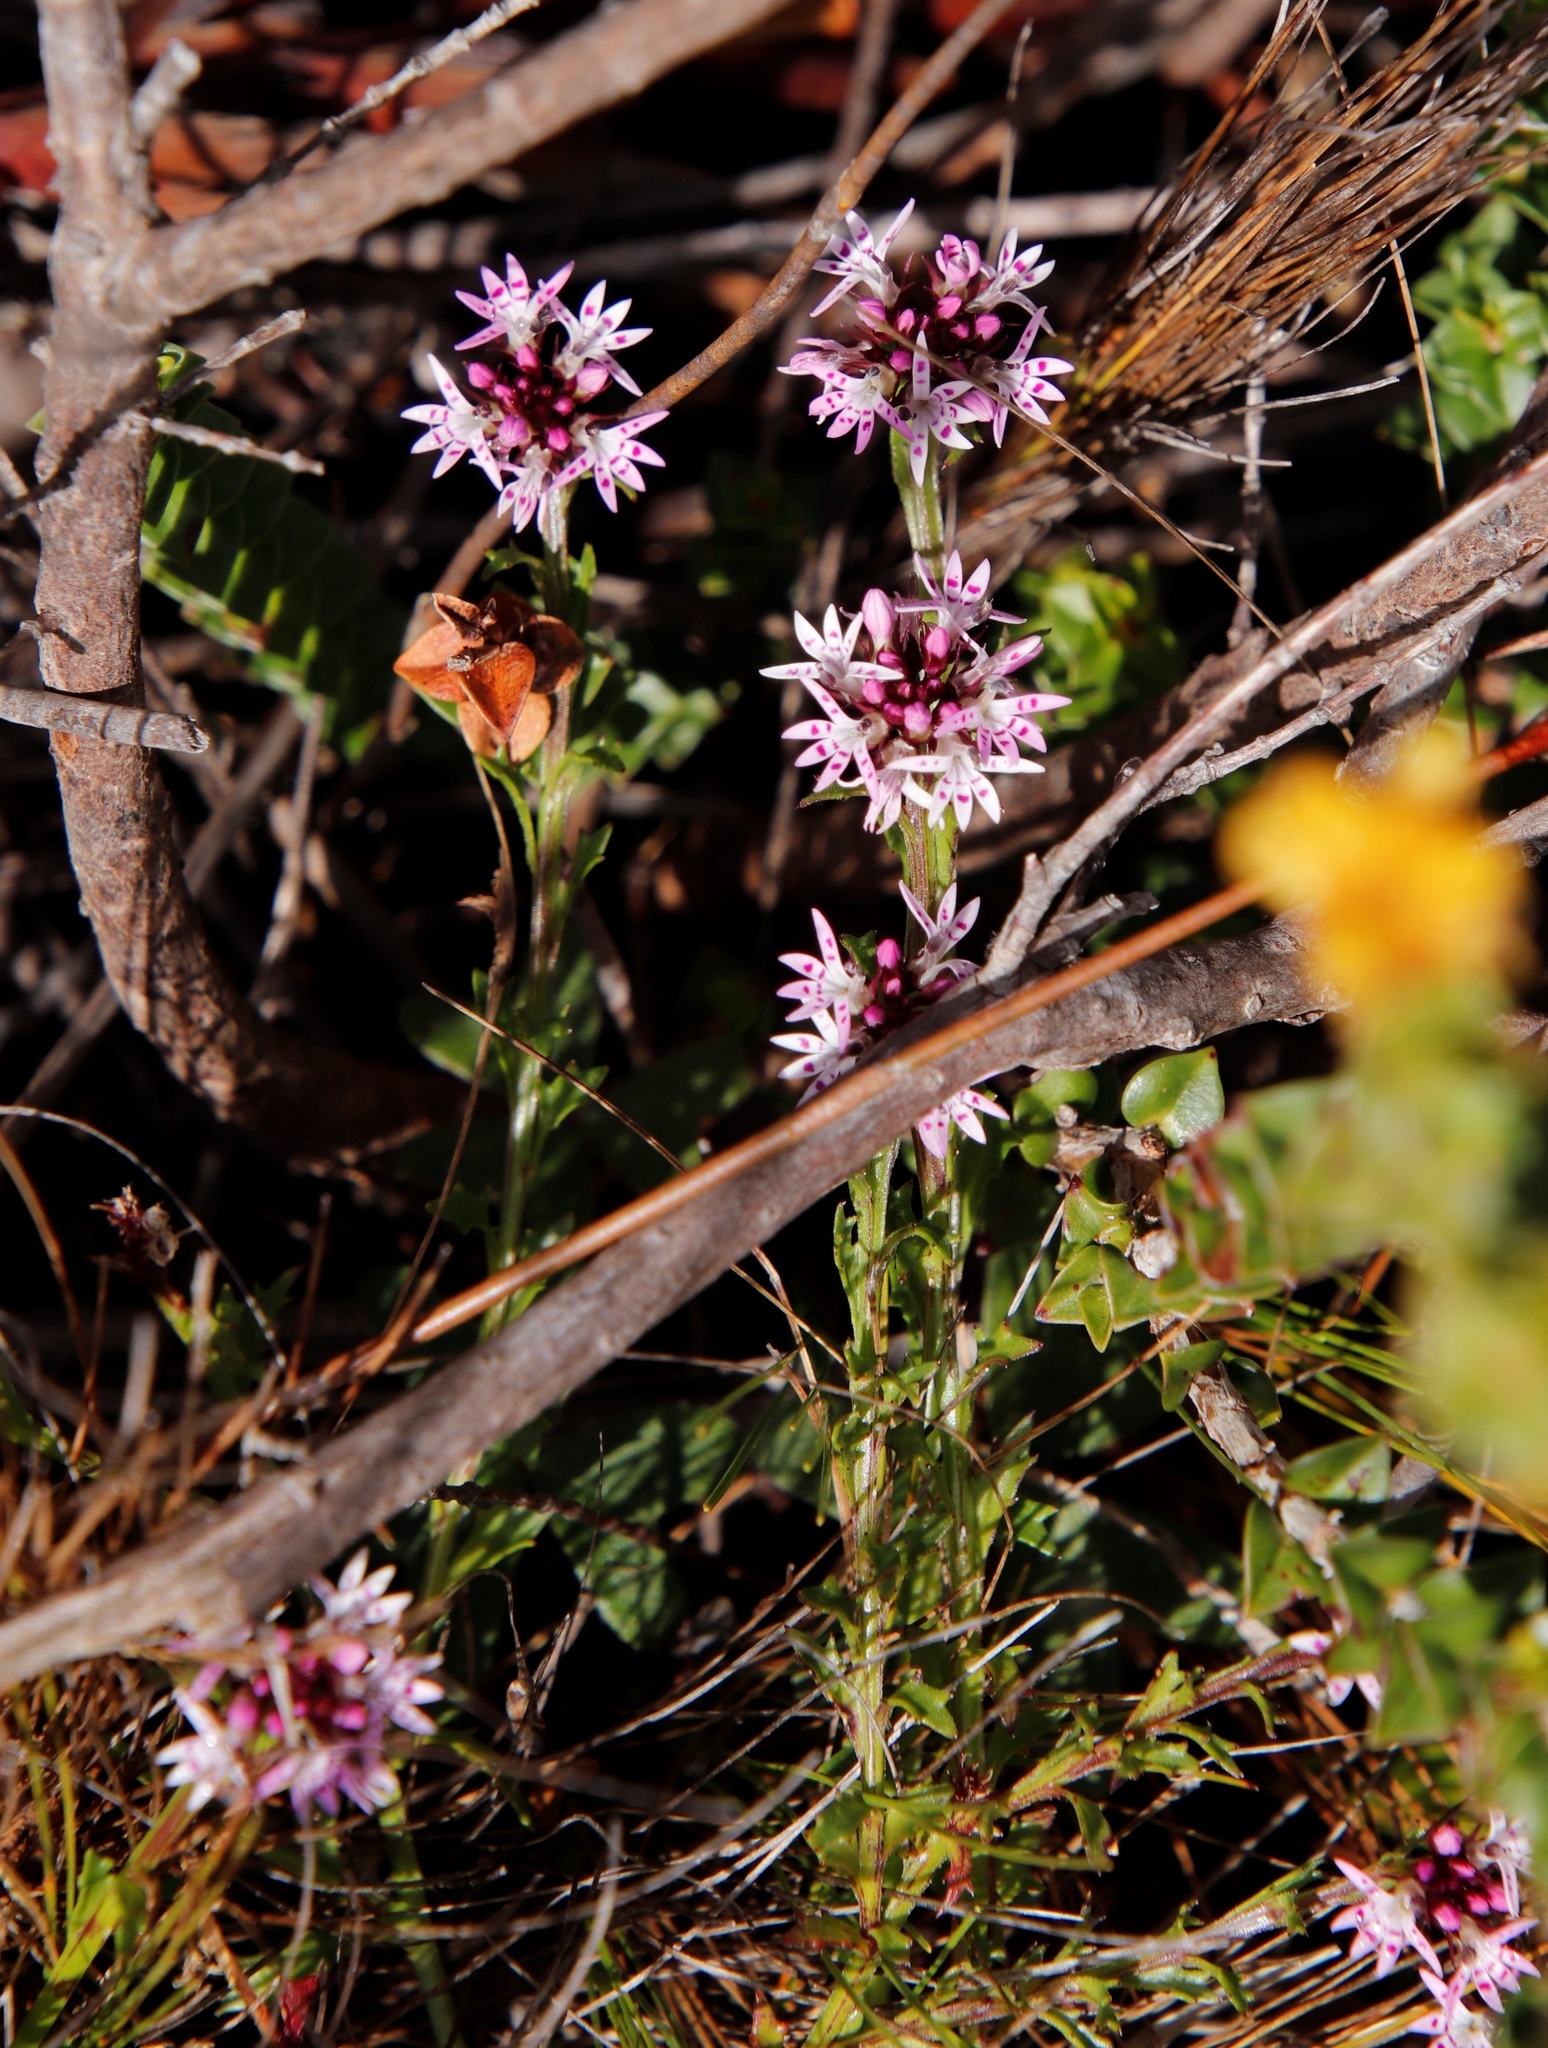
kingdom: Plantae
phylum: Tracheophyta
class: Magnoliopsida
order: Asterales
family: Campanulaceae
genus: Lobelia
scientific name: Lobelia jasionoides
